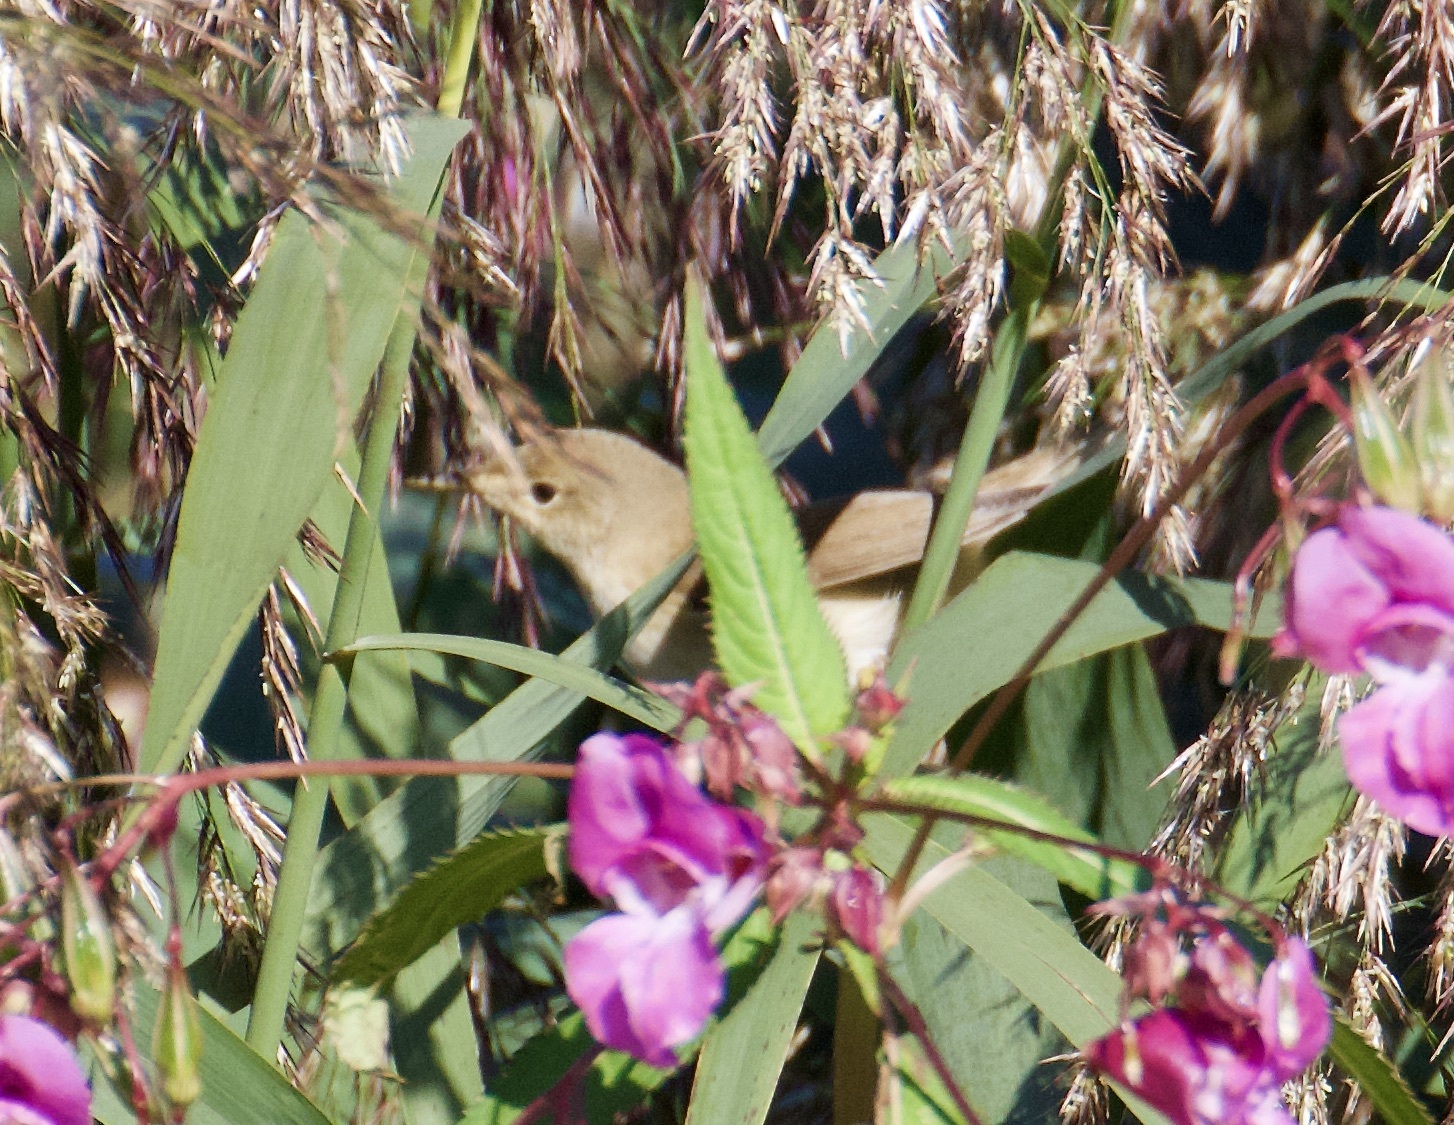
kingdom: Animalia
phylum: Chordata
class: Aves
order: Passeriformes
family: Acrocephalidae
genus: Acrocephalus
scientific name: Acrocephalus scirpaceus
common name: Eurasian reed warbler
